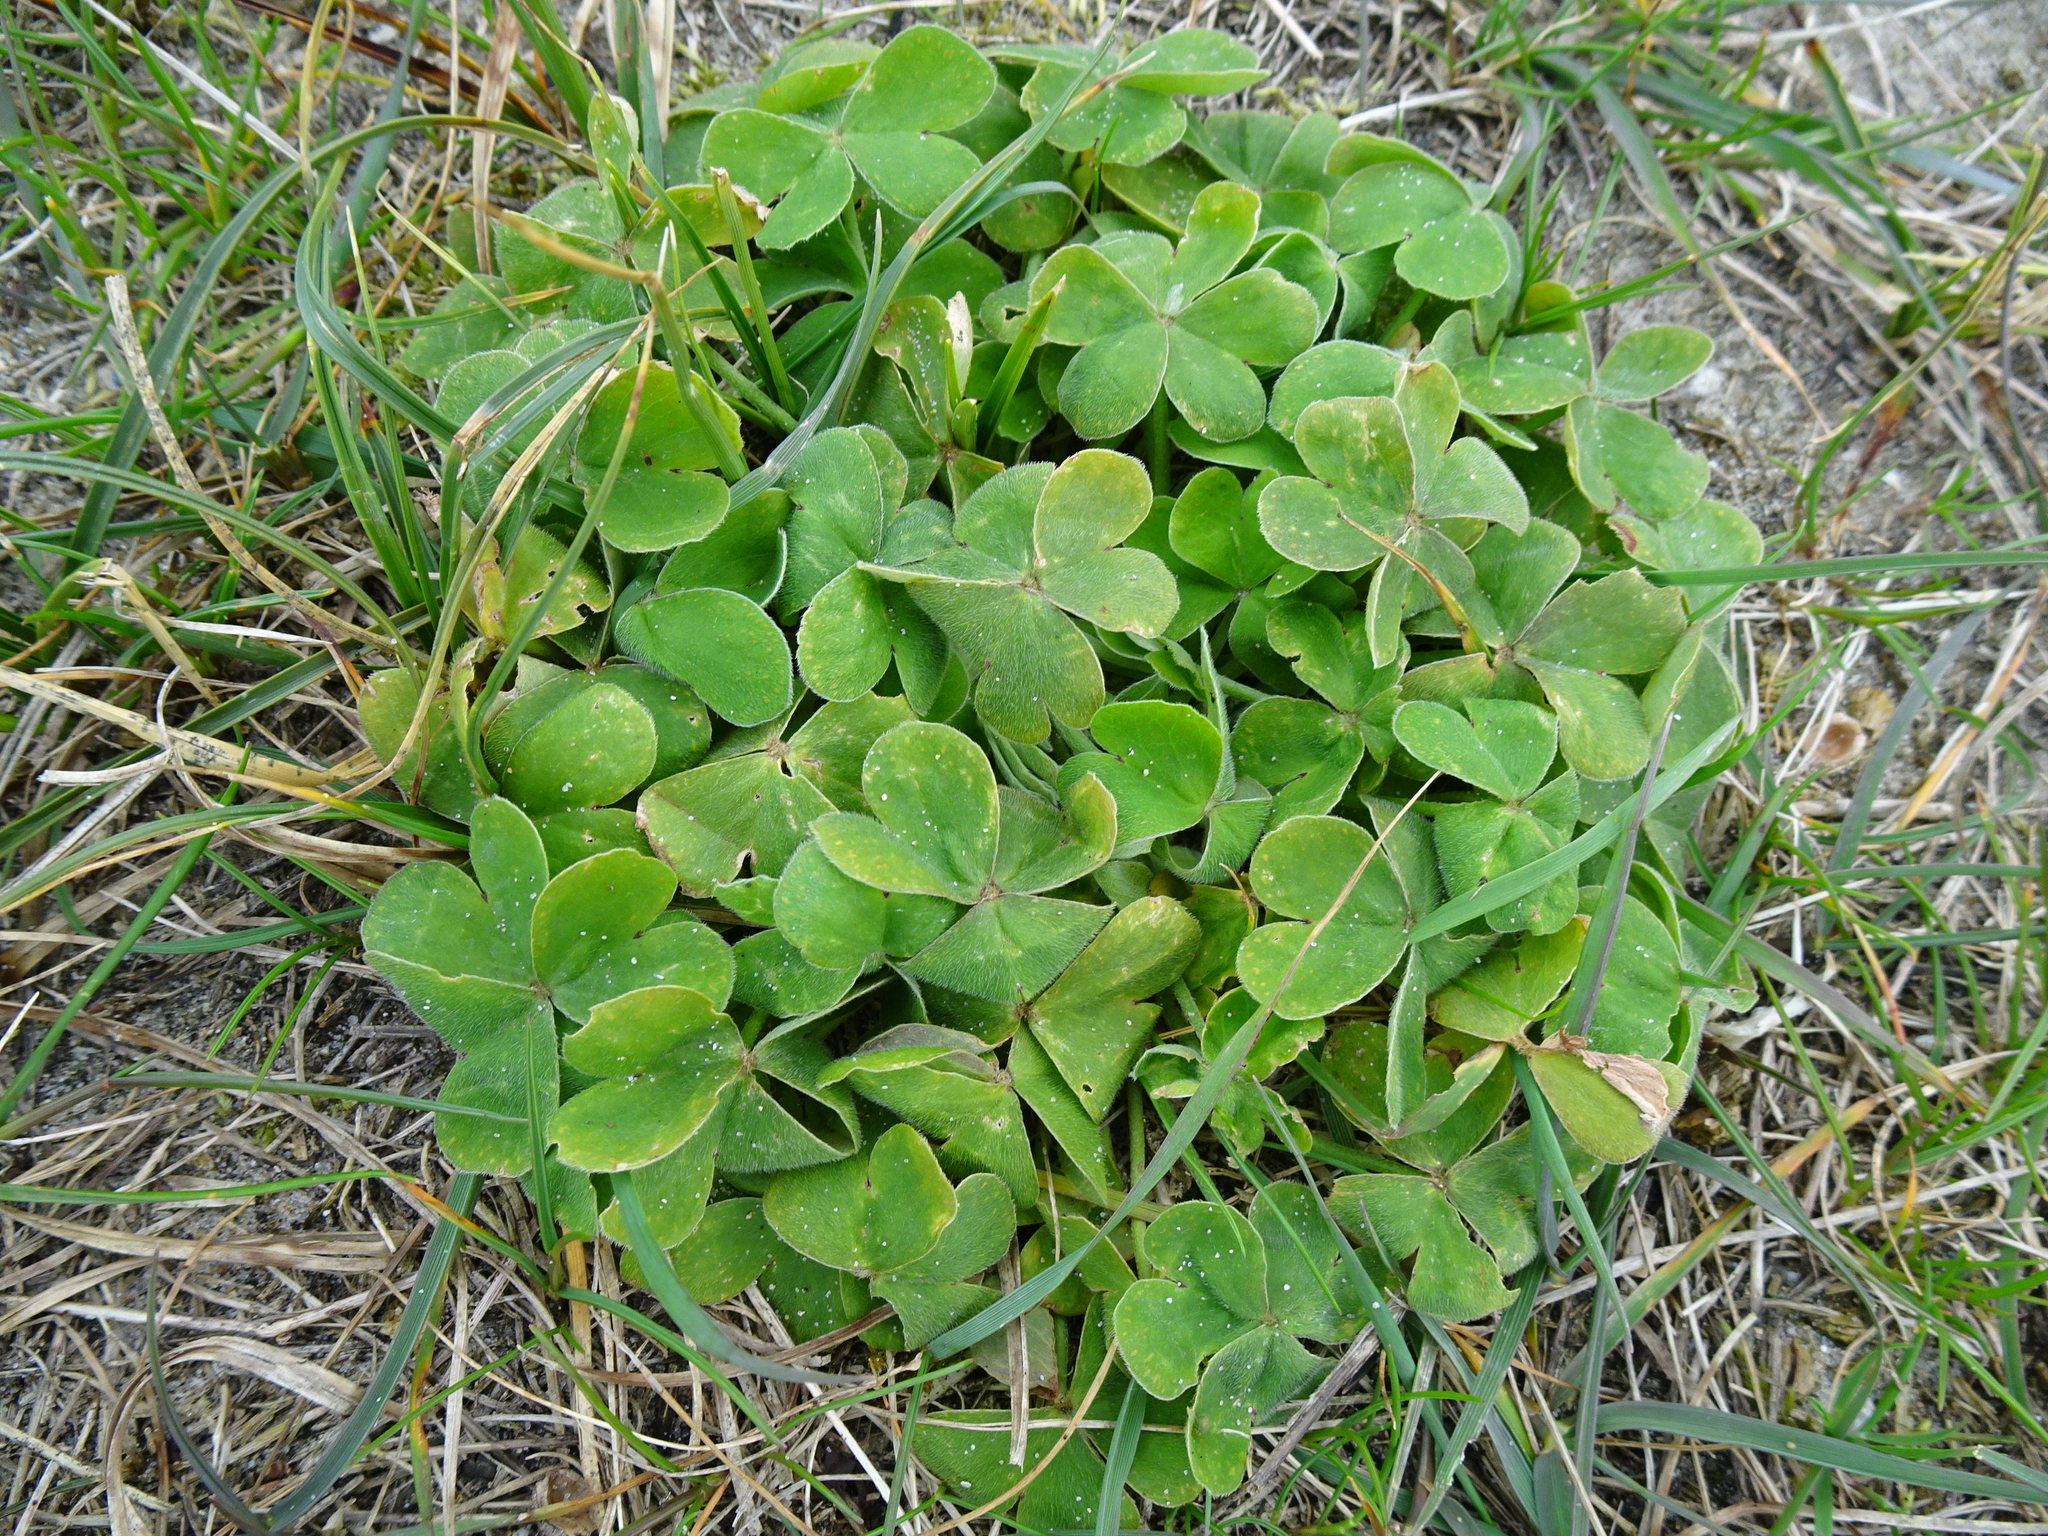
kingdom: Plantae
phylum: Tracheophyta
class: Magnoliopsida
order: Oxalidales
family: Oxalidaceae
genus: Oxalis
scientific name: Oxalis articulata
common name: Pink-sorrel
